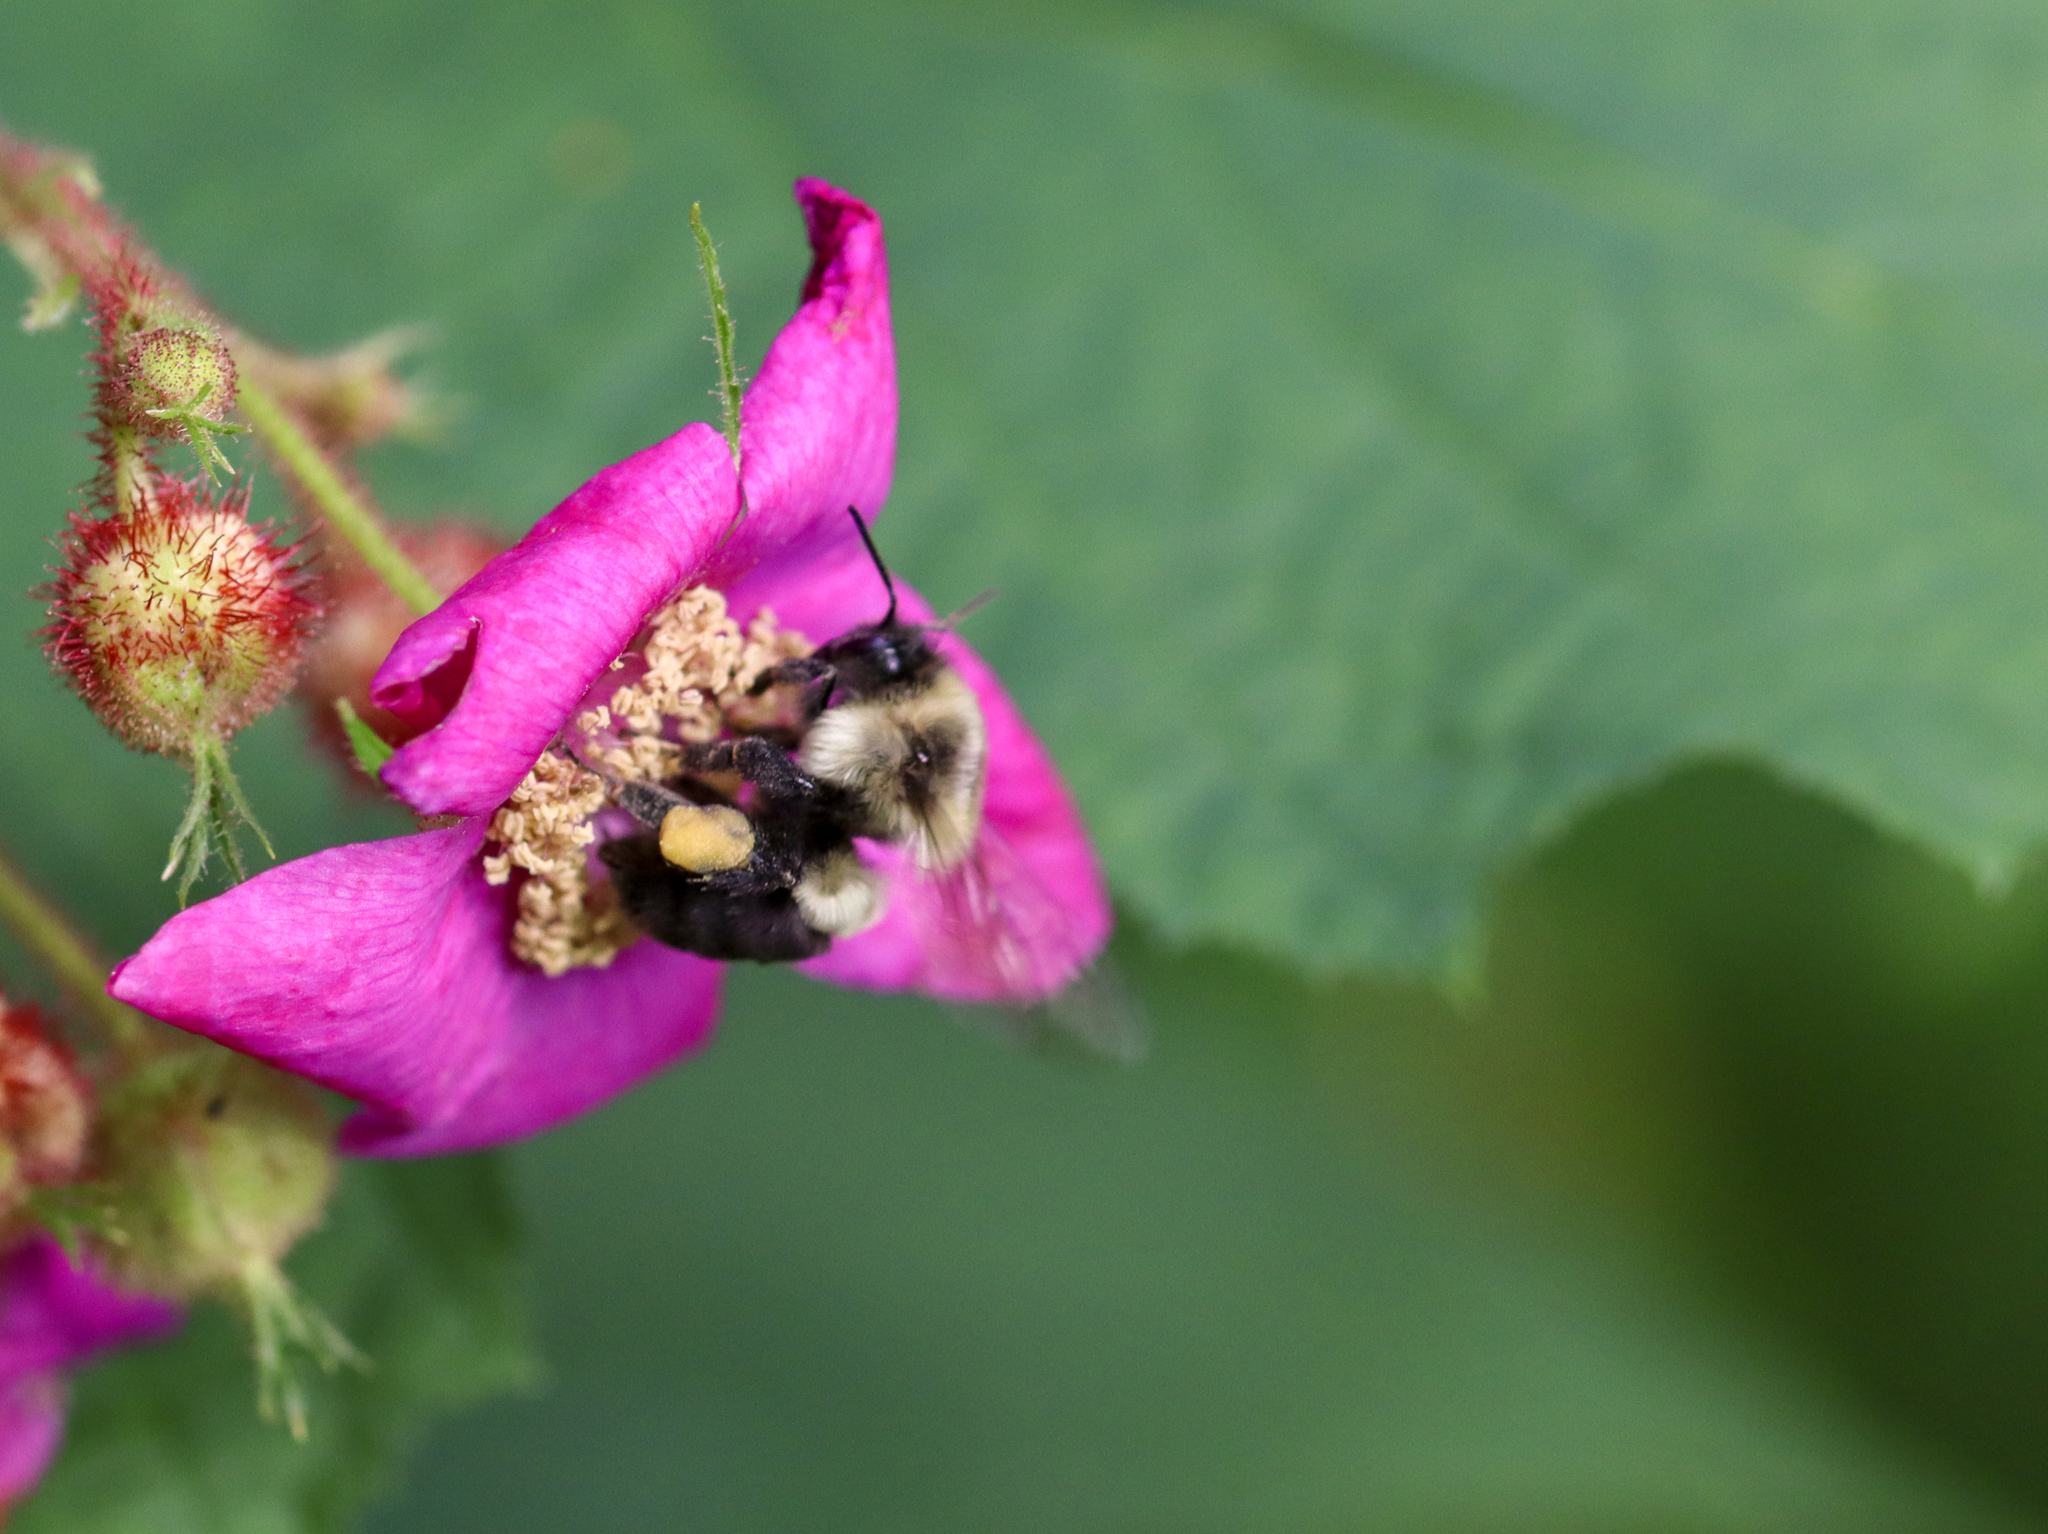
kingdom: Animalia
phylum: Arthropoda
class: Insecta
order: Hymenoptera
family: Apidae
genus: Bombus
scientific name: Bombus impatiens
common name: Common eastern bumble bee
